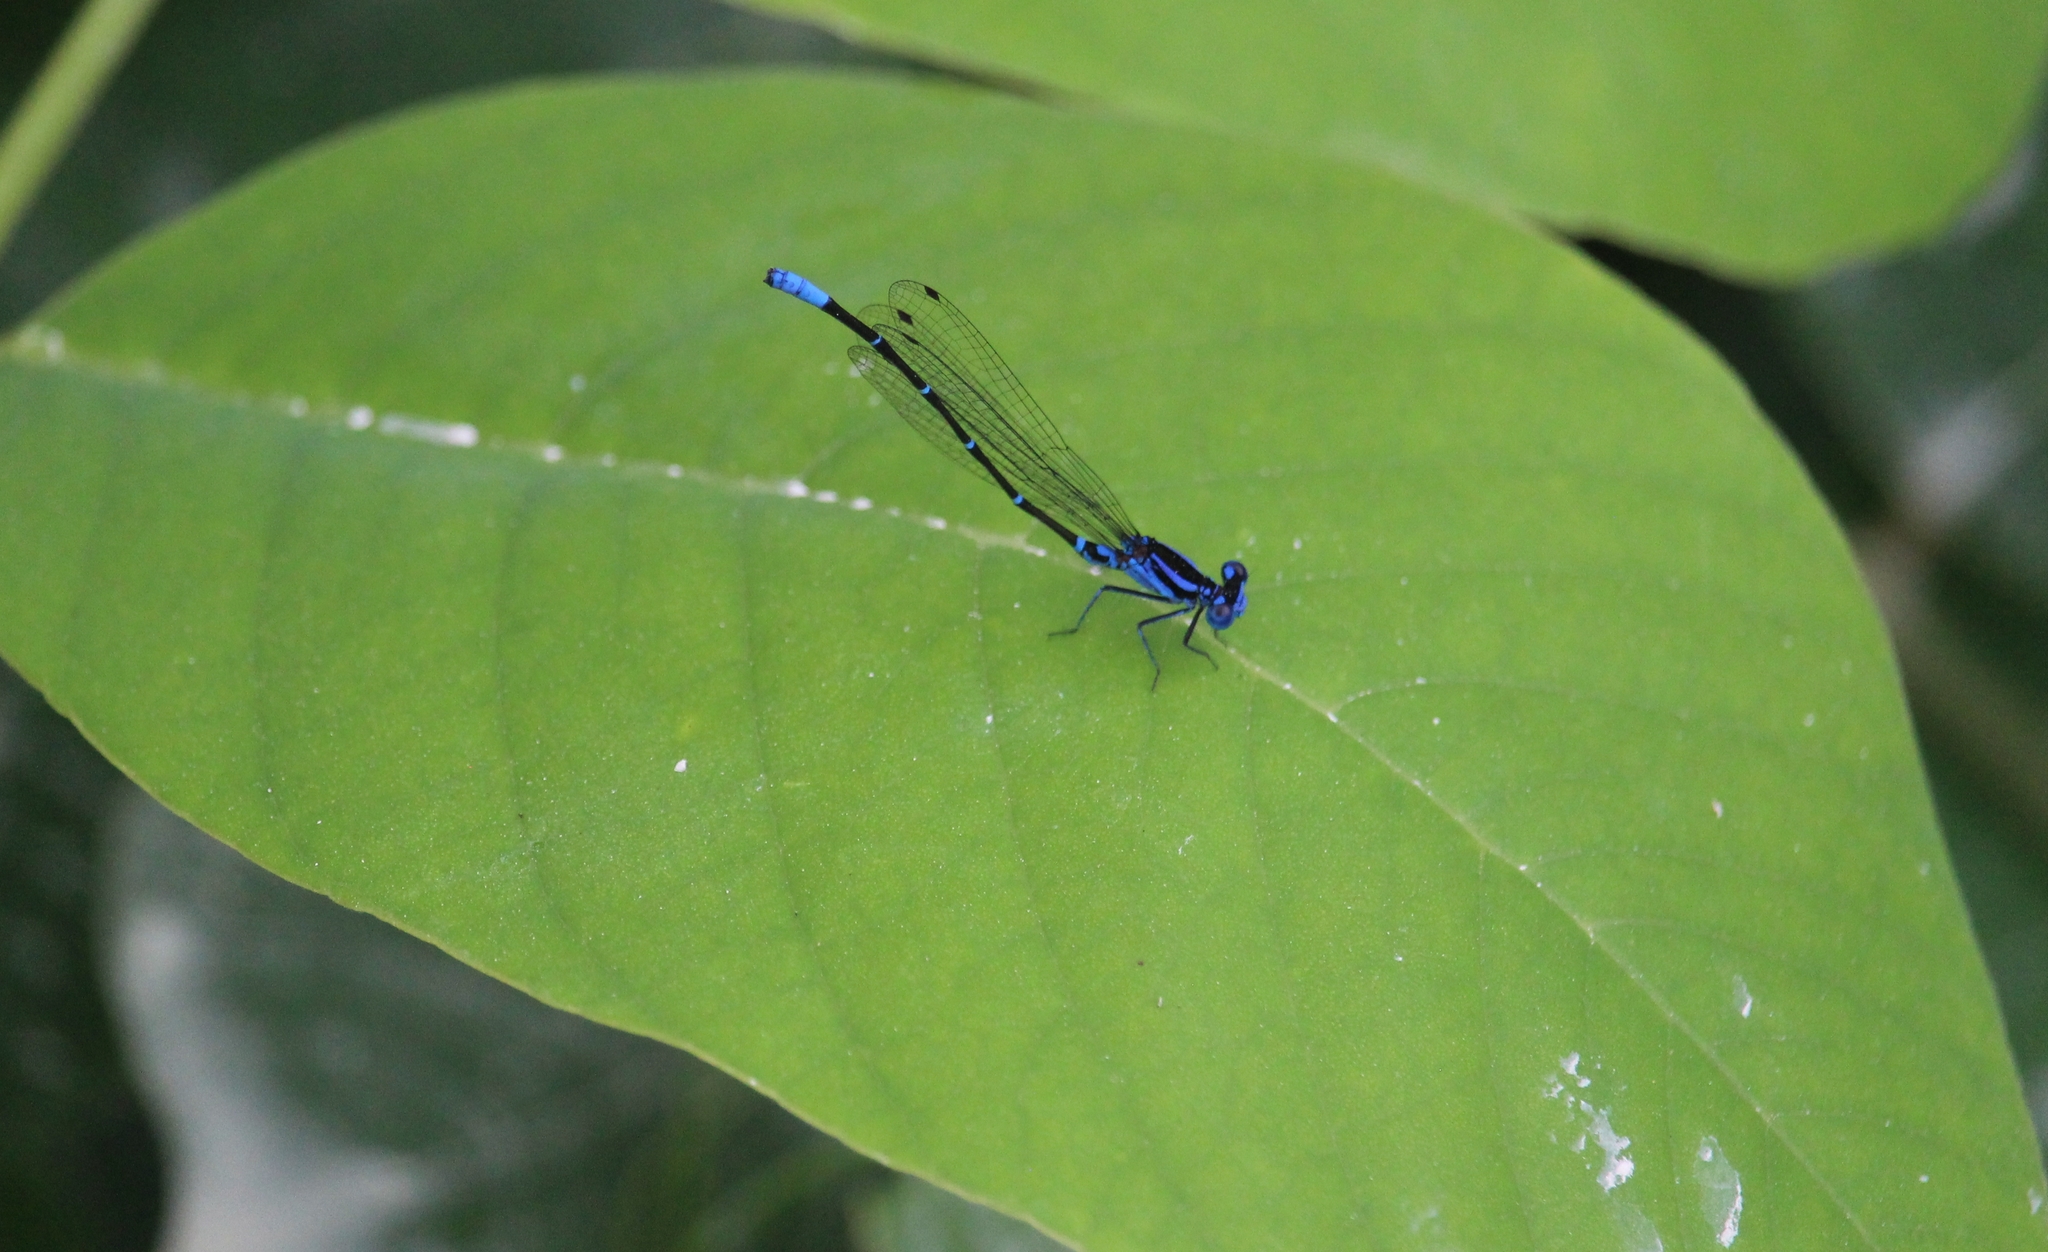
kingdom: Animalia
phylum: Arthropoda
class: Insecta
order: Odonata
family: Coenagrionidae
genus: Argia
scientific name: Argia gaumeri
